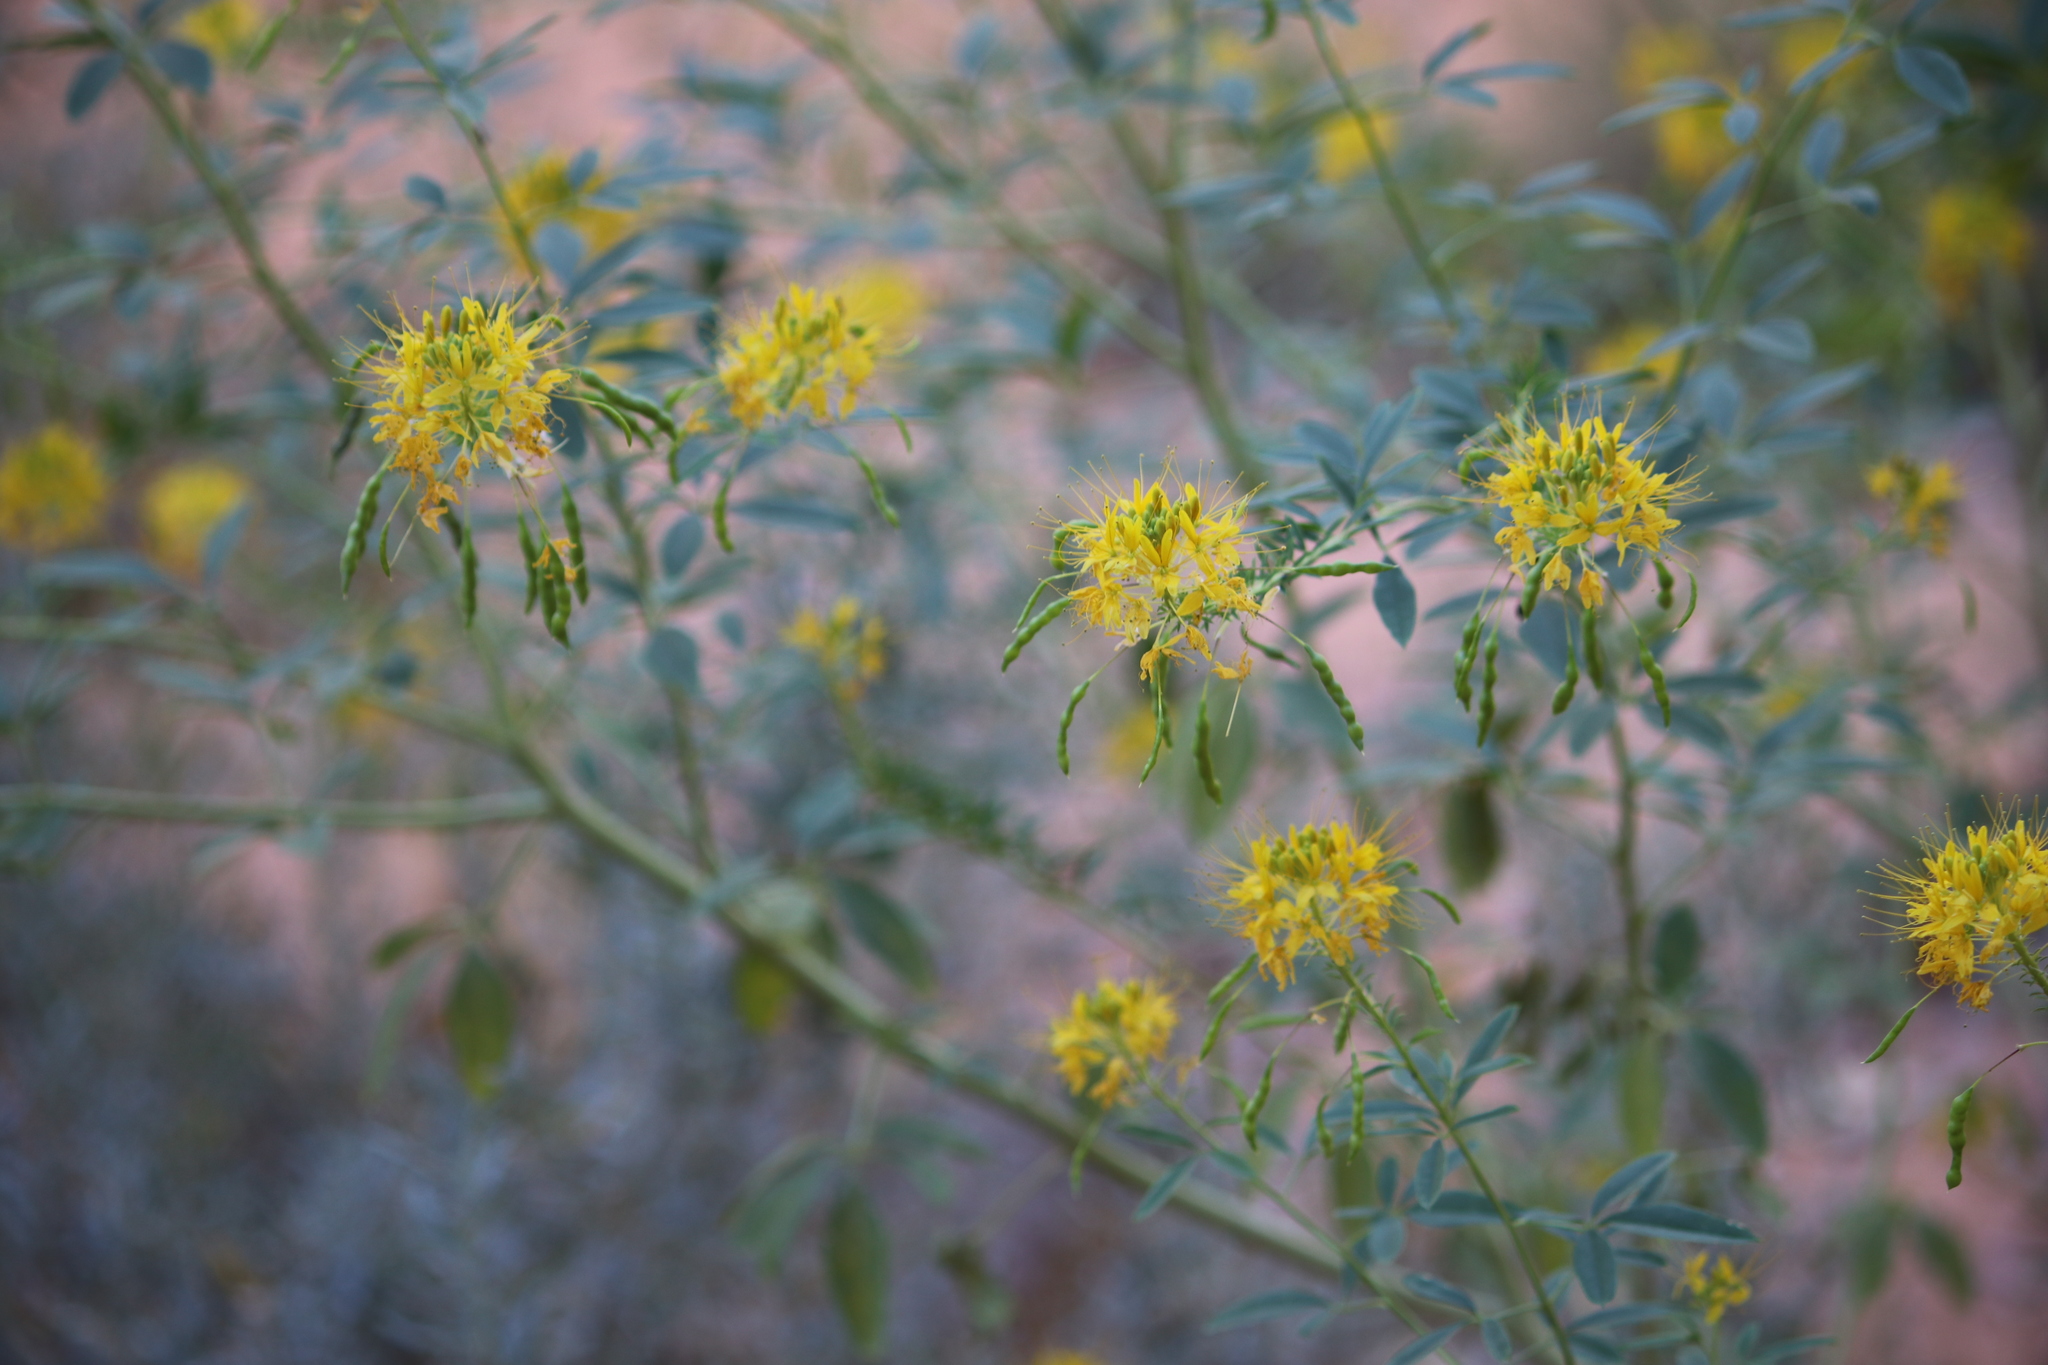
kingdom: Plantae
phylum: Tracheophyta
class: Magnoliopsida
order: Brassicales
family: Cleomaceae
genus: Cleomella
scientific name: Cleomella lutea
